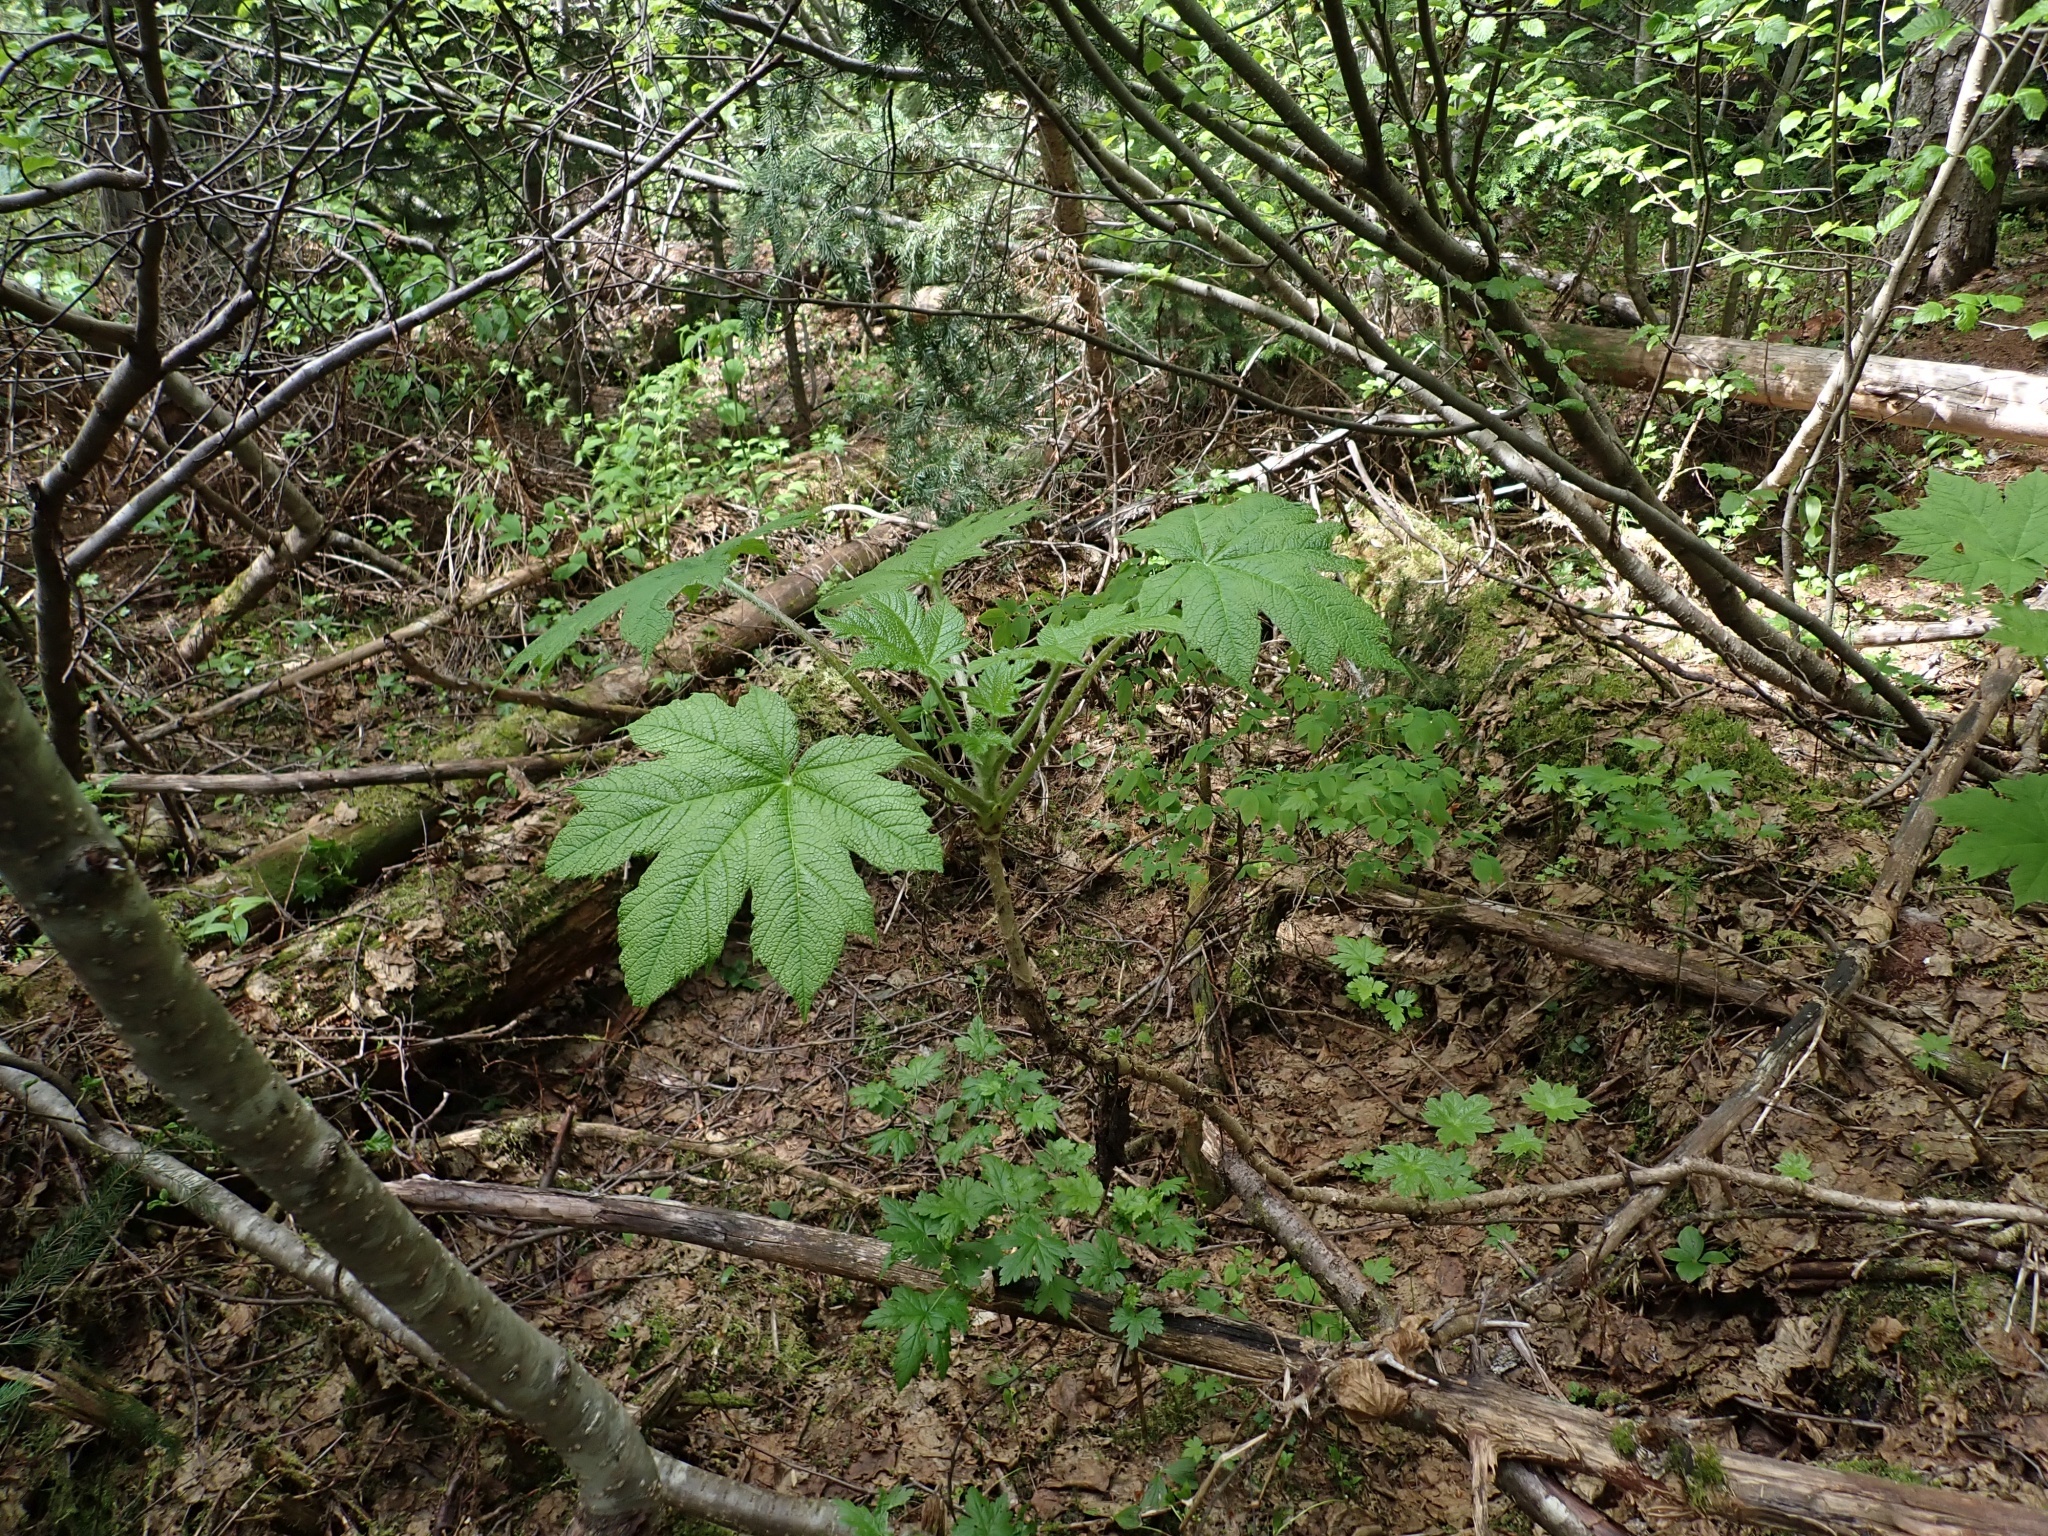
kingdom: Plantae
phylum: Tracheophyta
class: Magnoliopsida
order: Apiales
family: Araliaceae
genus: Oplopanax
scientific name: Oplopanax horridus
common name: Devil's walking-stick
